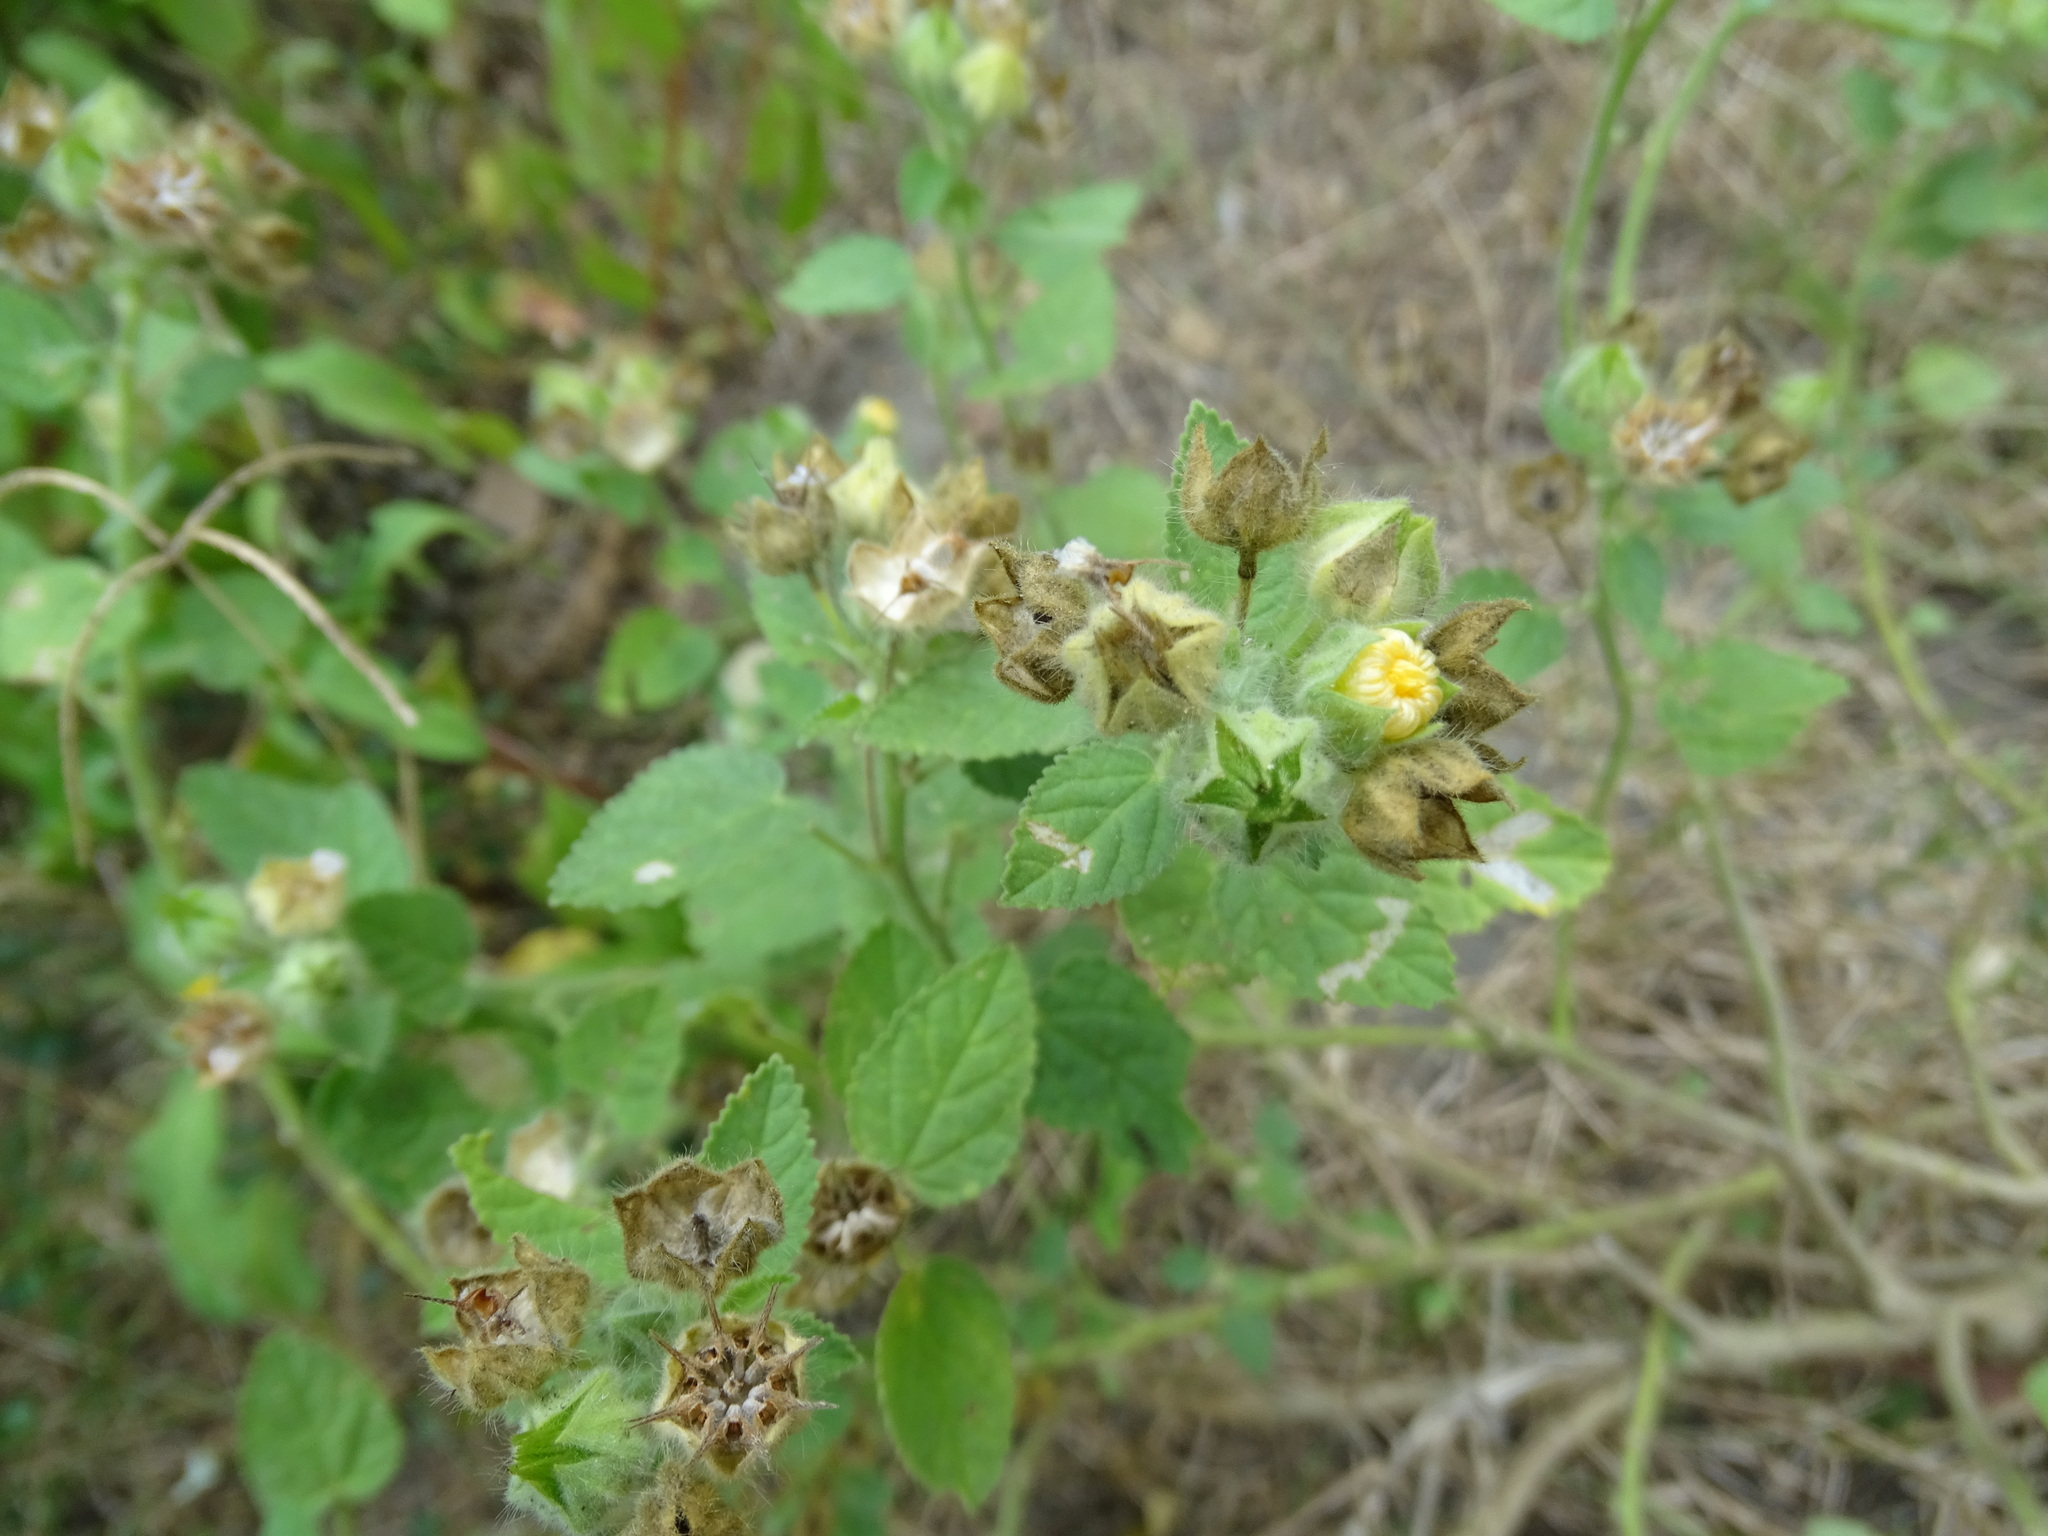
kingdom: Plantae
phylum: Tracheophyta
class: Magnoliopsida
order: Malvales
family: Malvaceae
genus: Sida
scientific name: Sida cordifolia
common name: Ilima
